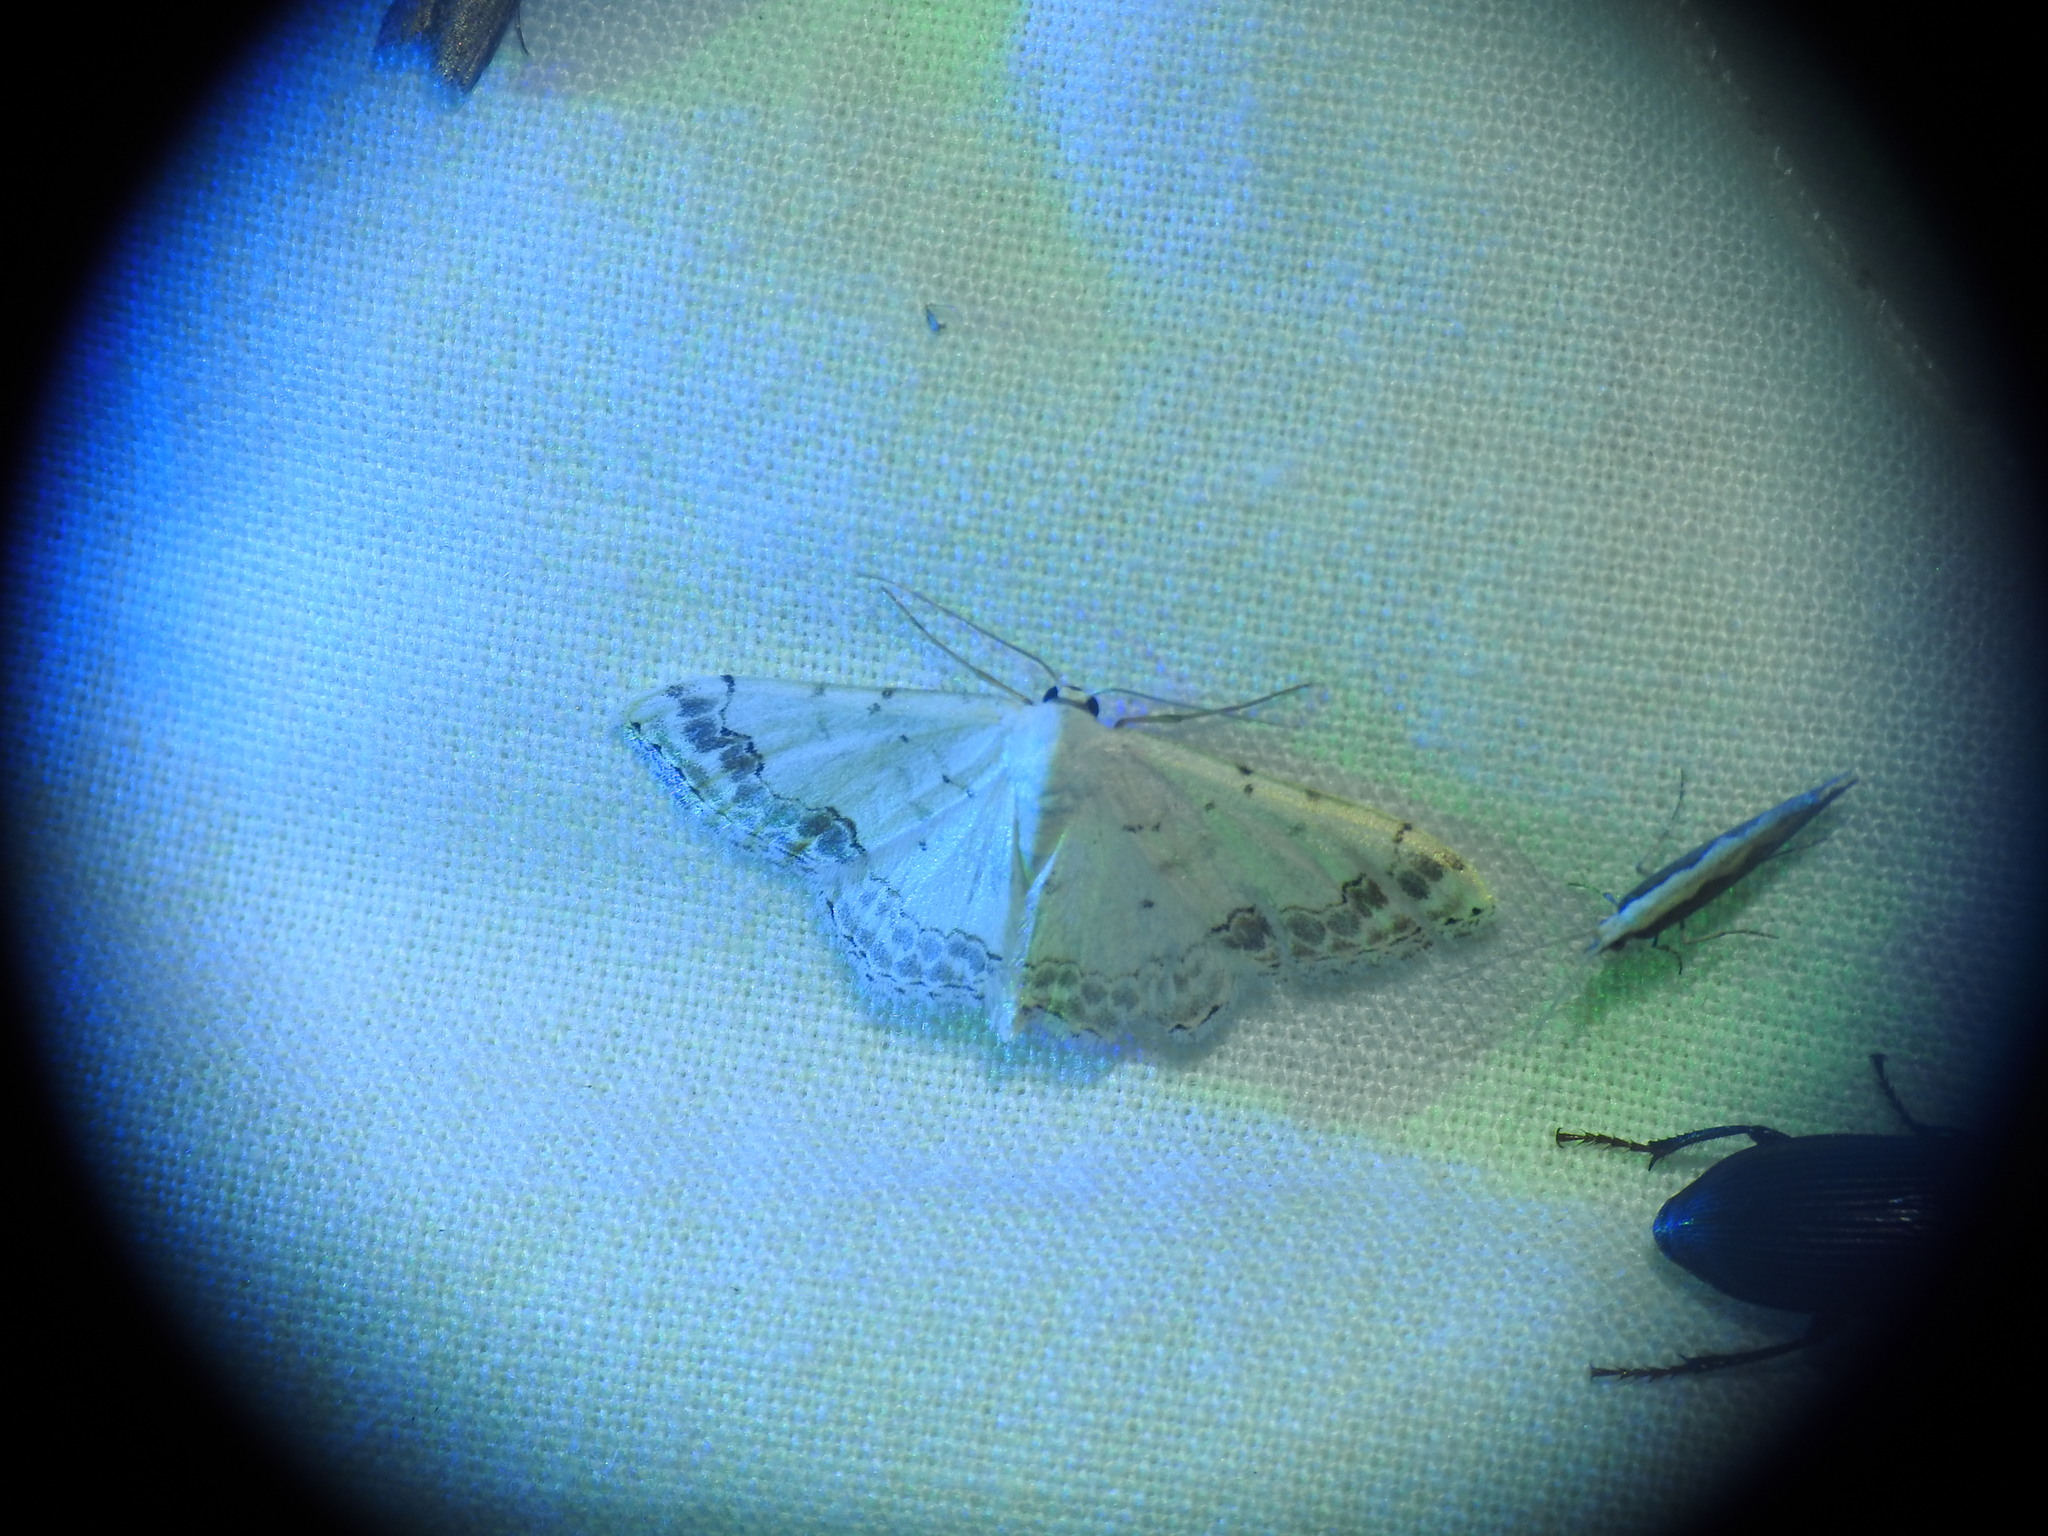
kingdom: Animalia
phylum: Arthropoda
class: Insecta
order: Lepidoptera
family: Geometridae
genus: Scopula
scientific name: Scopula decorata
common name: Middle lace border
